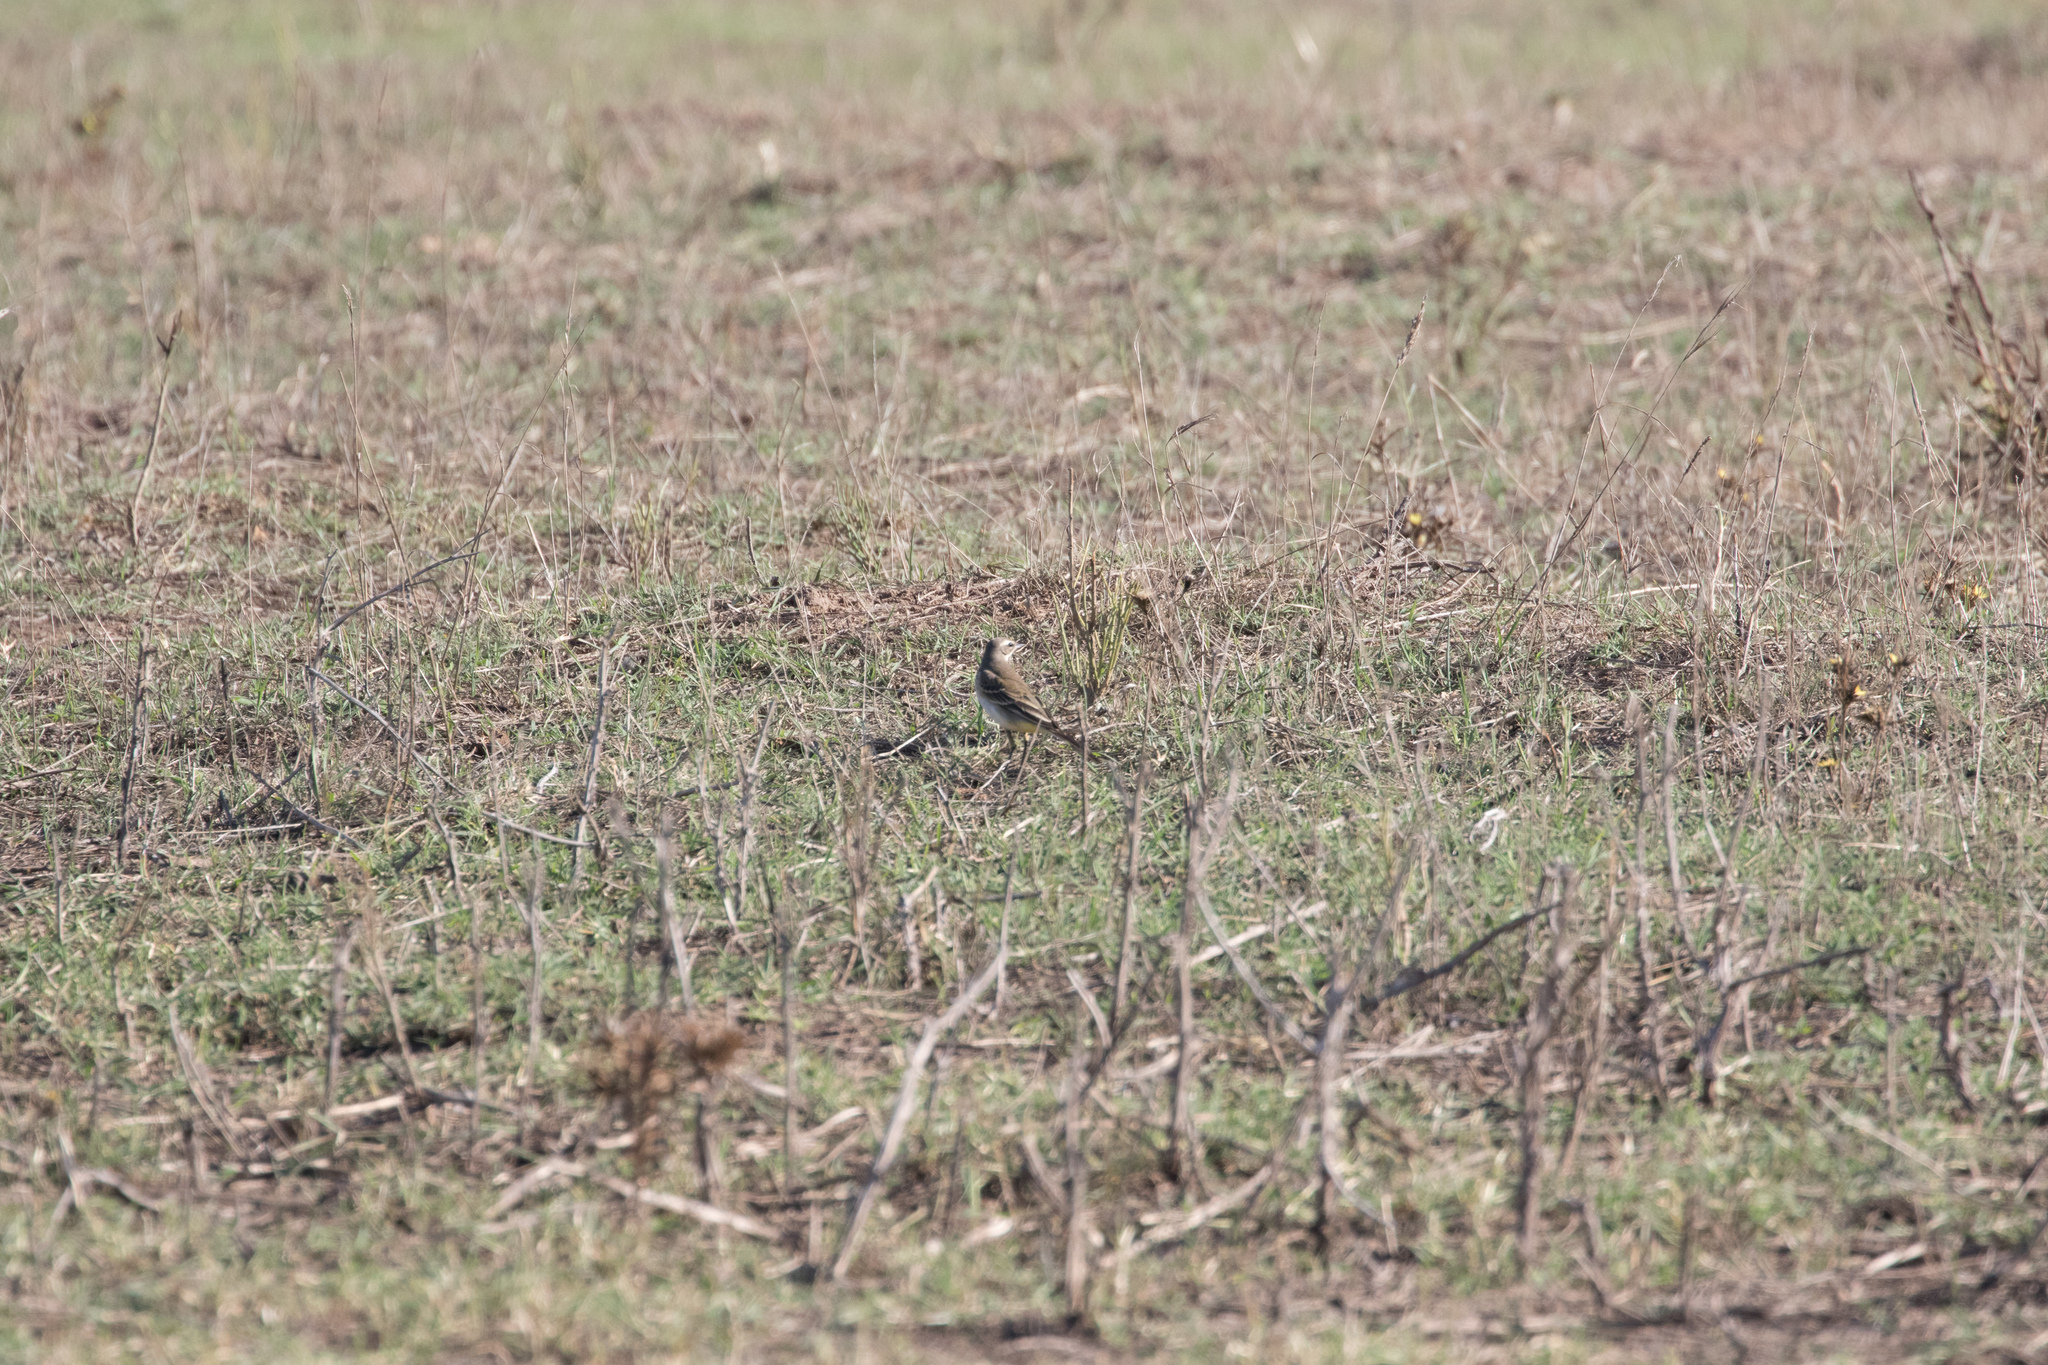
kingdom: Animalia
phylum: Chordata
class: Aves
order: Passeriformes
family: Motacillidae
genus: Motacilla
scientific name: Motacilla flava
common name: Western yellow wagtail
